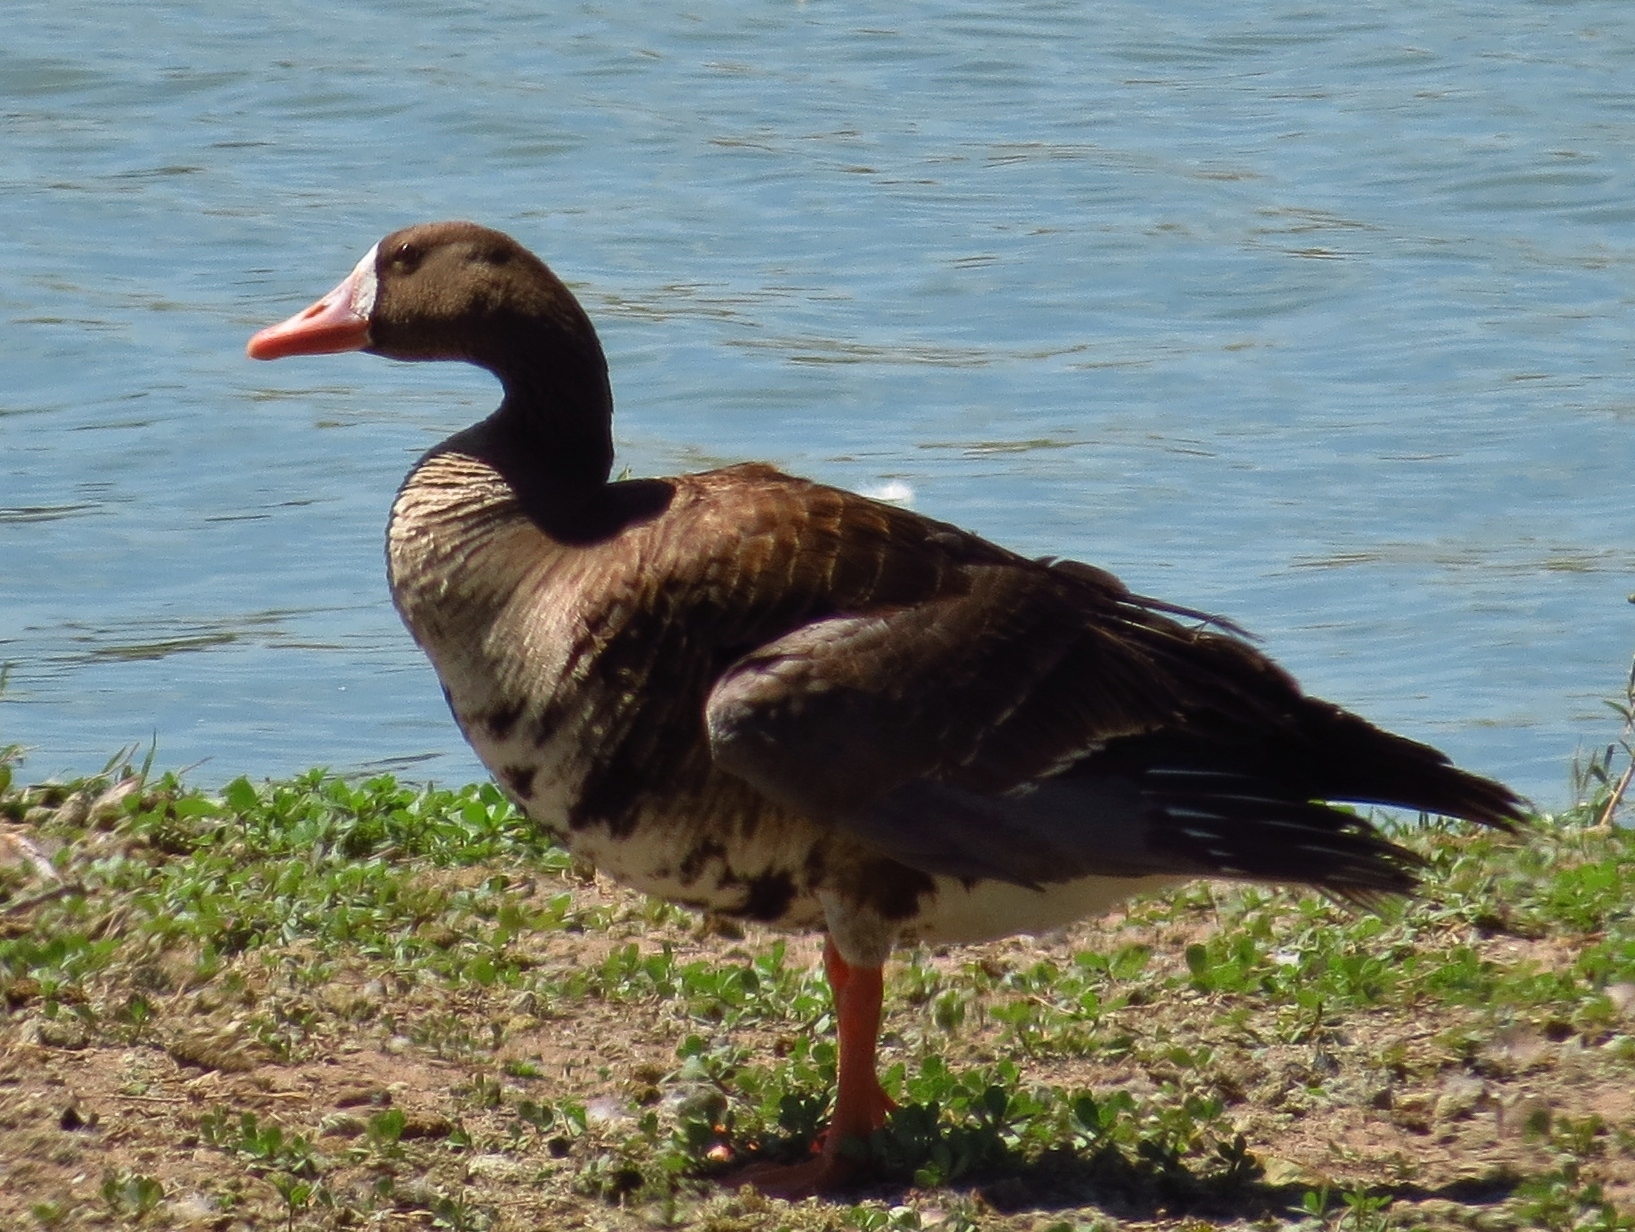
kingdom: Animalia
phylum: Chordata
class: Aves
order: Anseriformes
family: Anatidae
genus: Anser
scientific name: Anser albifrons
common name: Greater white-fronted goose
